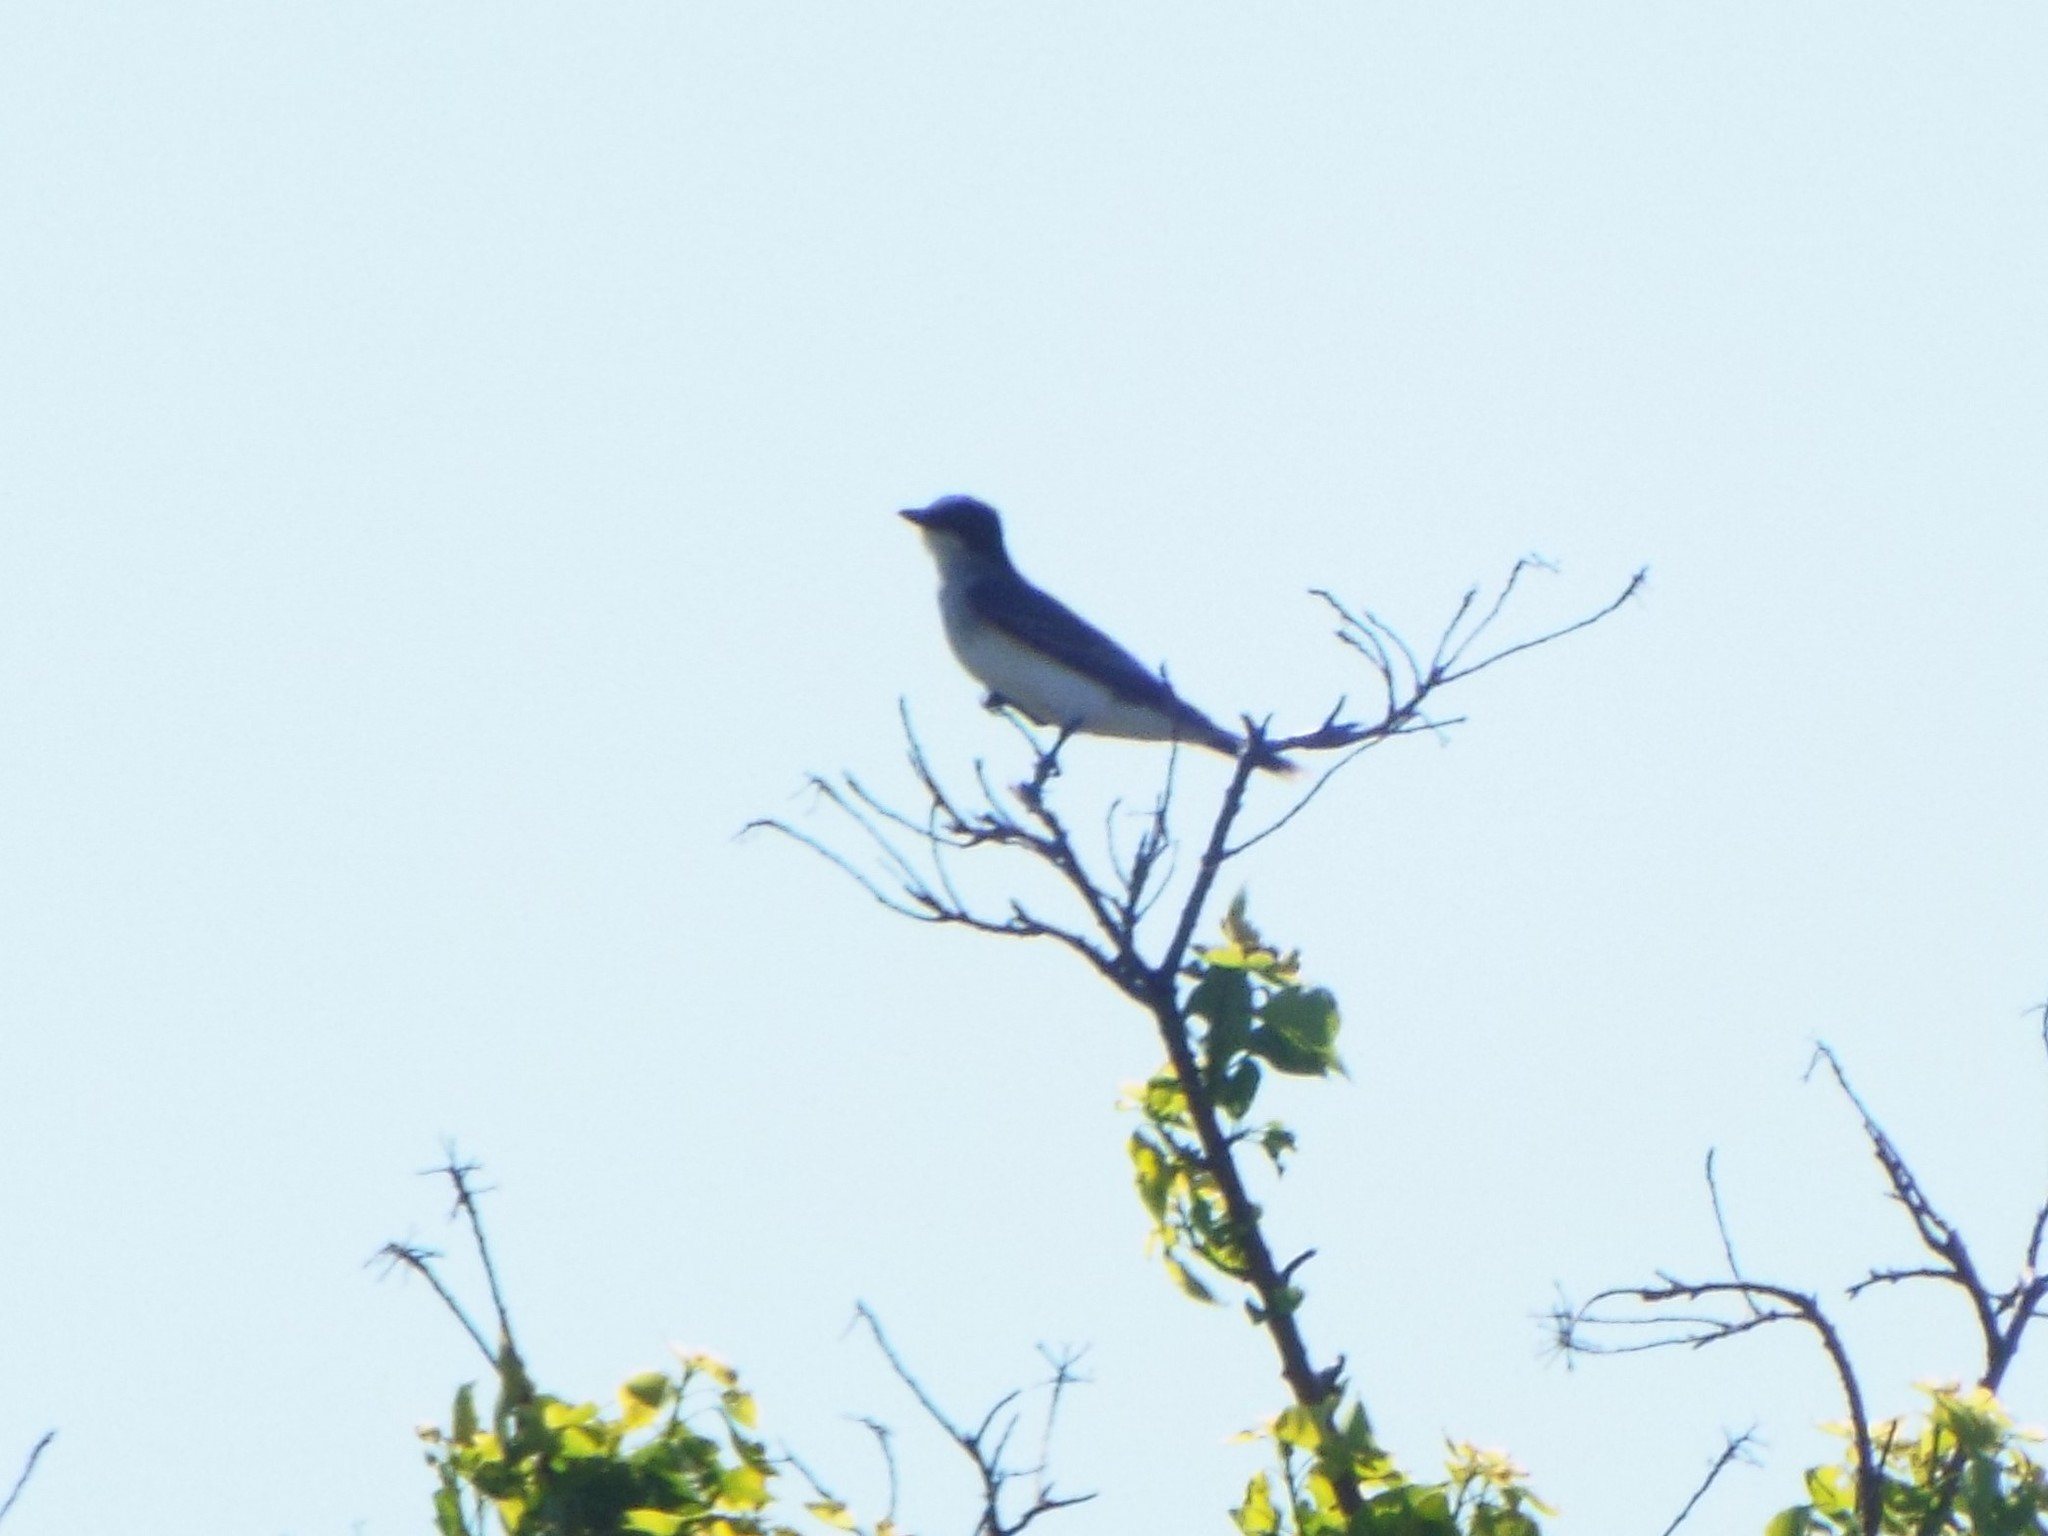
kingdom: Animalia
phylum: Chordata
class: Aves
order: Passeriformes
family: Tyrannidae
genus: Tyrannus
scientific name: Tyrannus tyrannus
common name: Eastern kingbird
